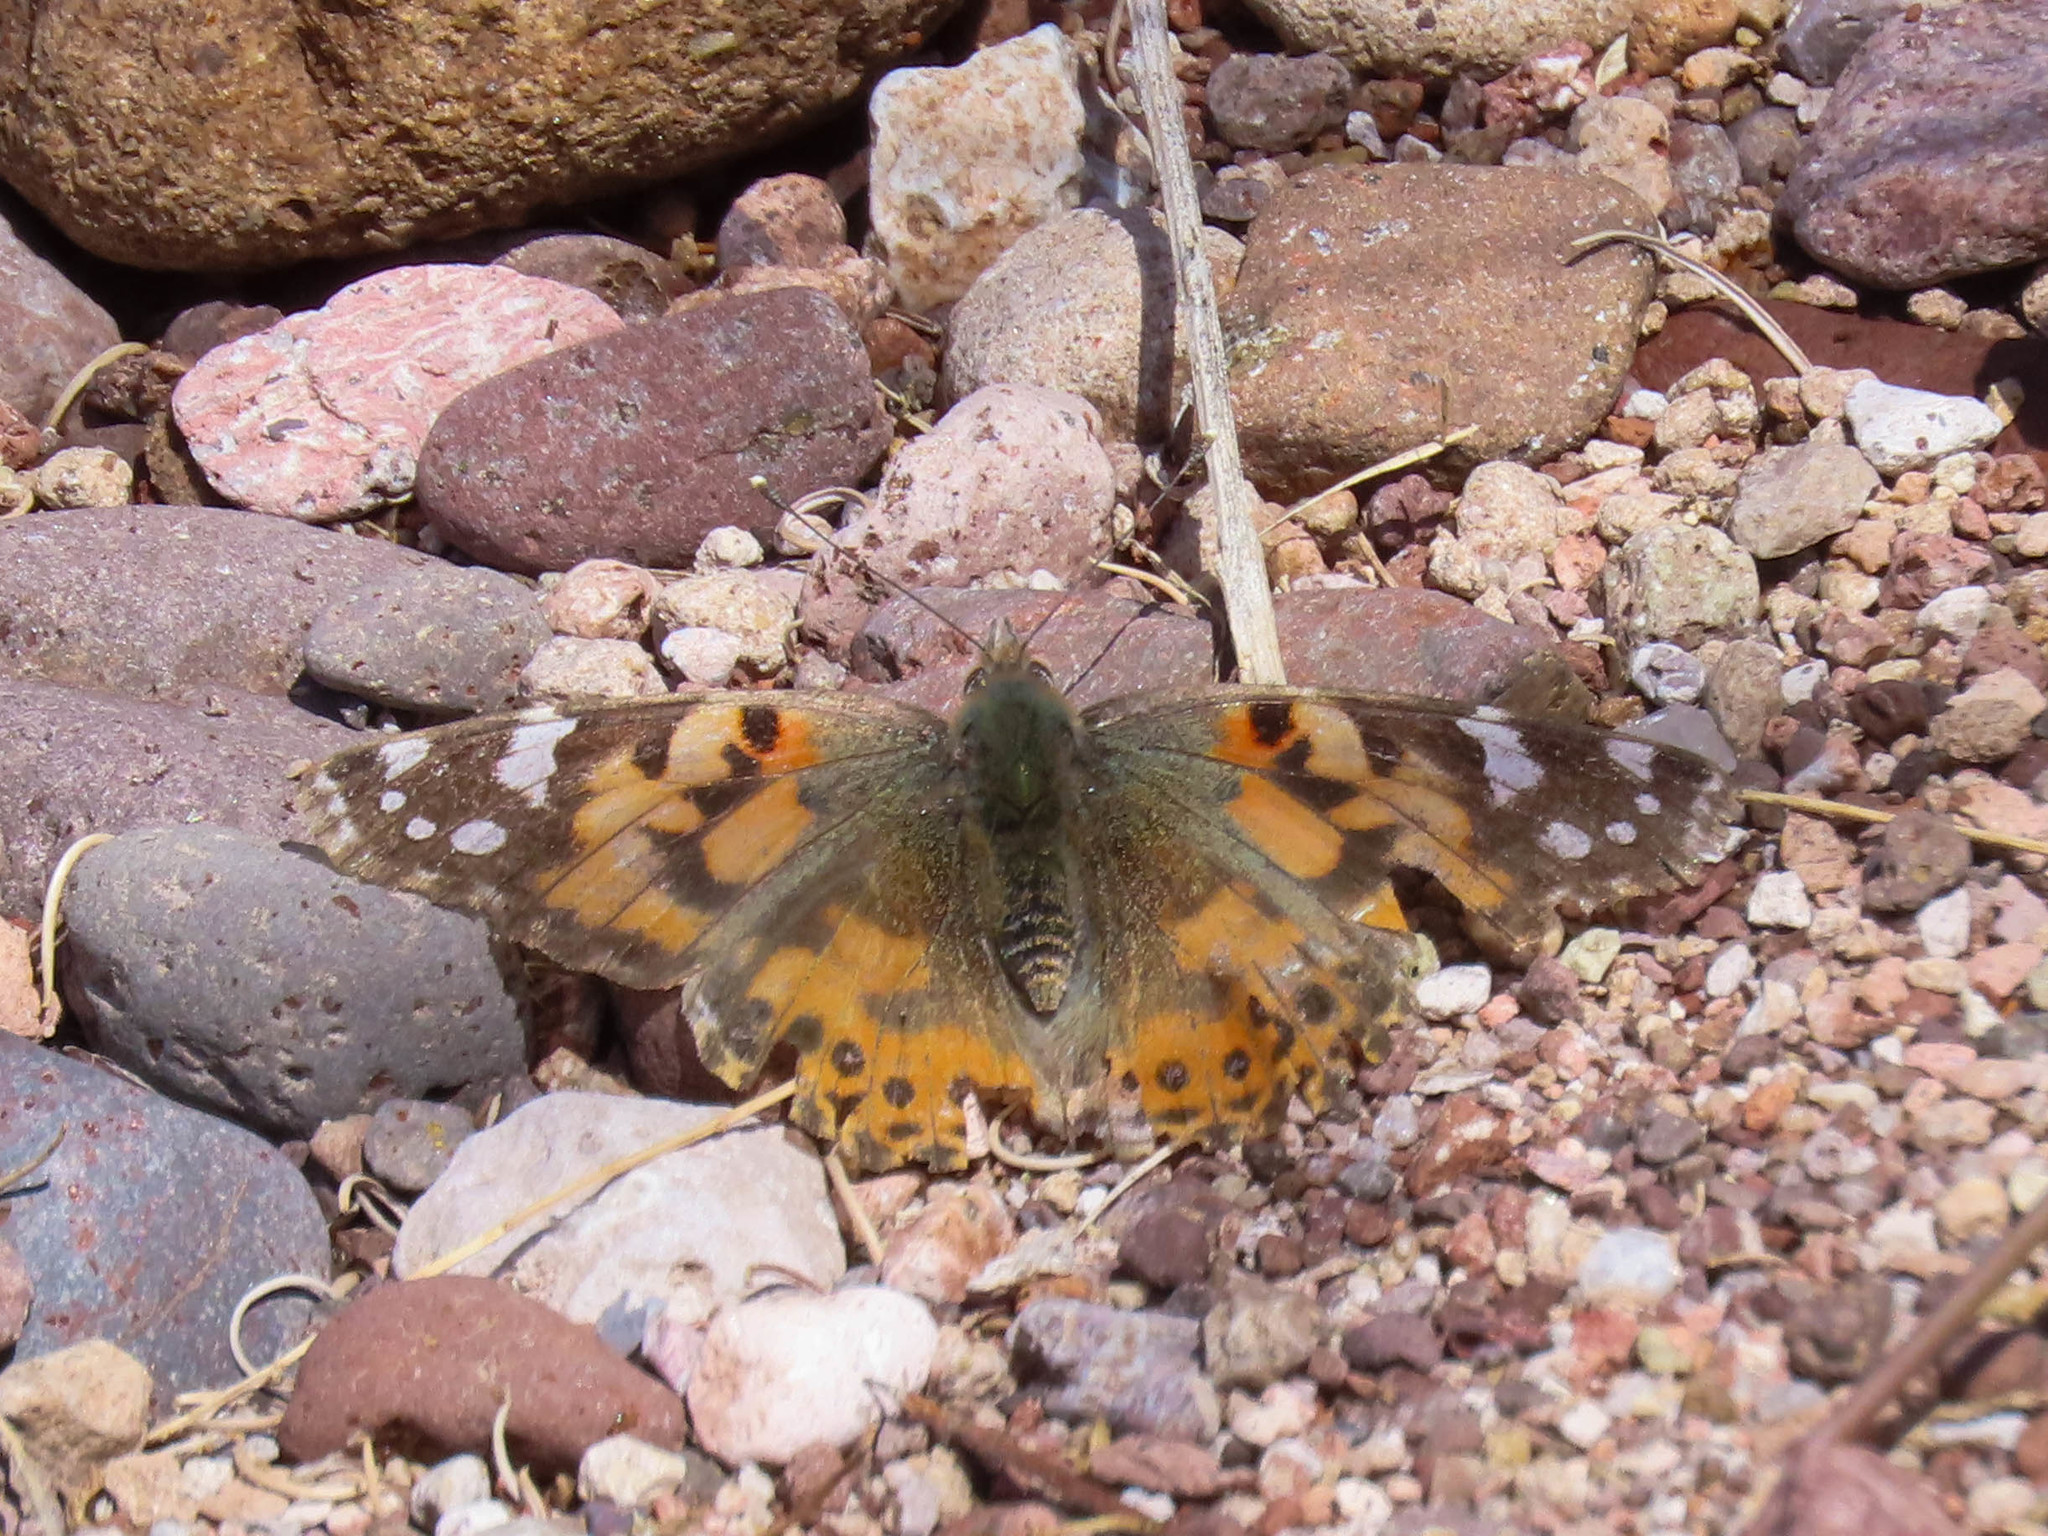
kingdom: Animalia
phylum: Arthropoda
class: Insecta
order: Lepidoptera
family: Nymphalidae
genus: Vanessa
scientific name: Vanessa cardui
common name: Painted lady
